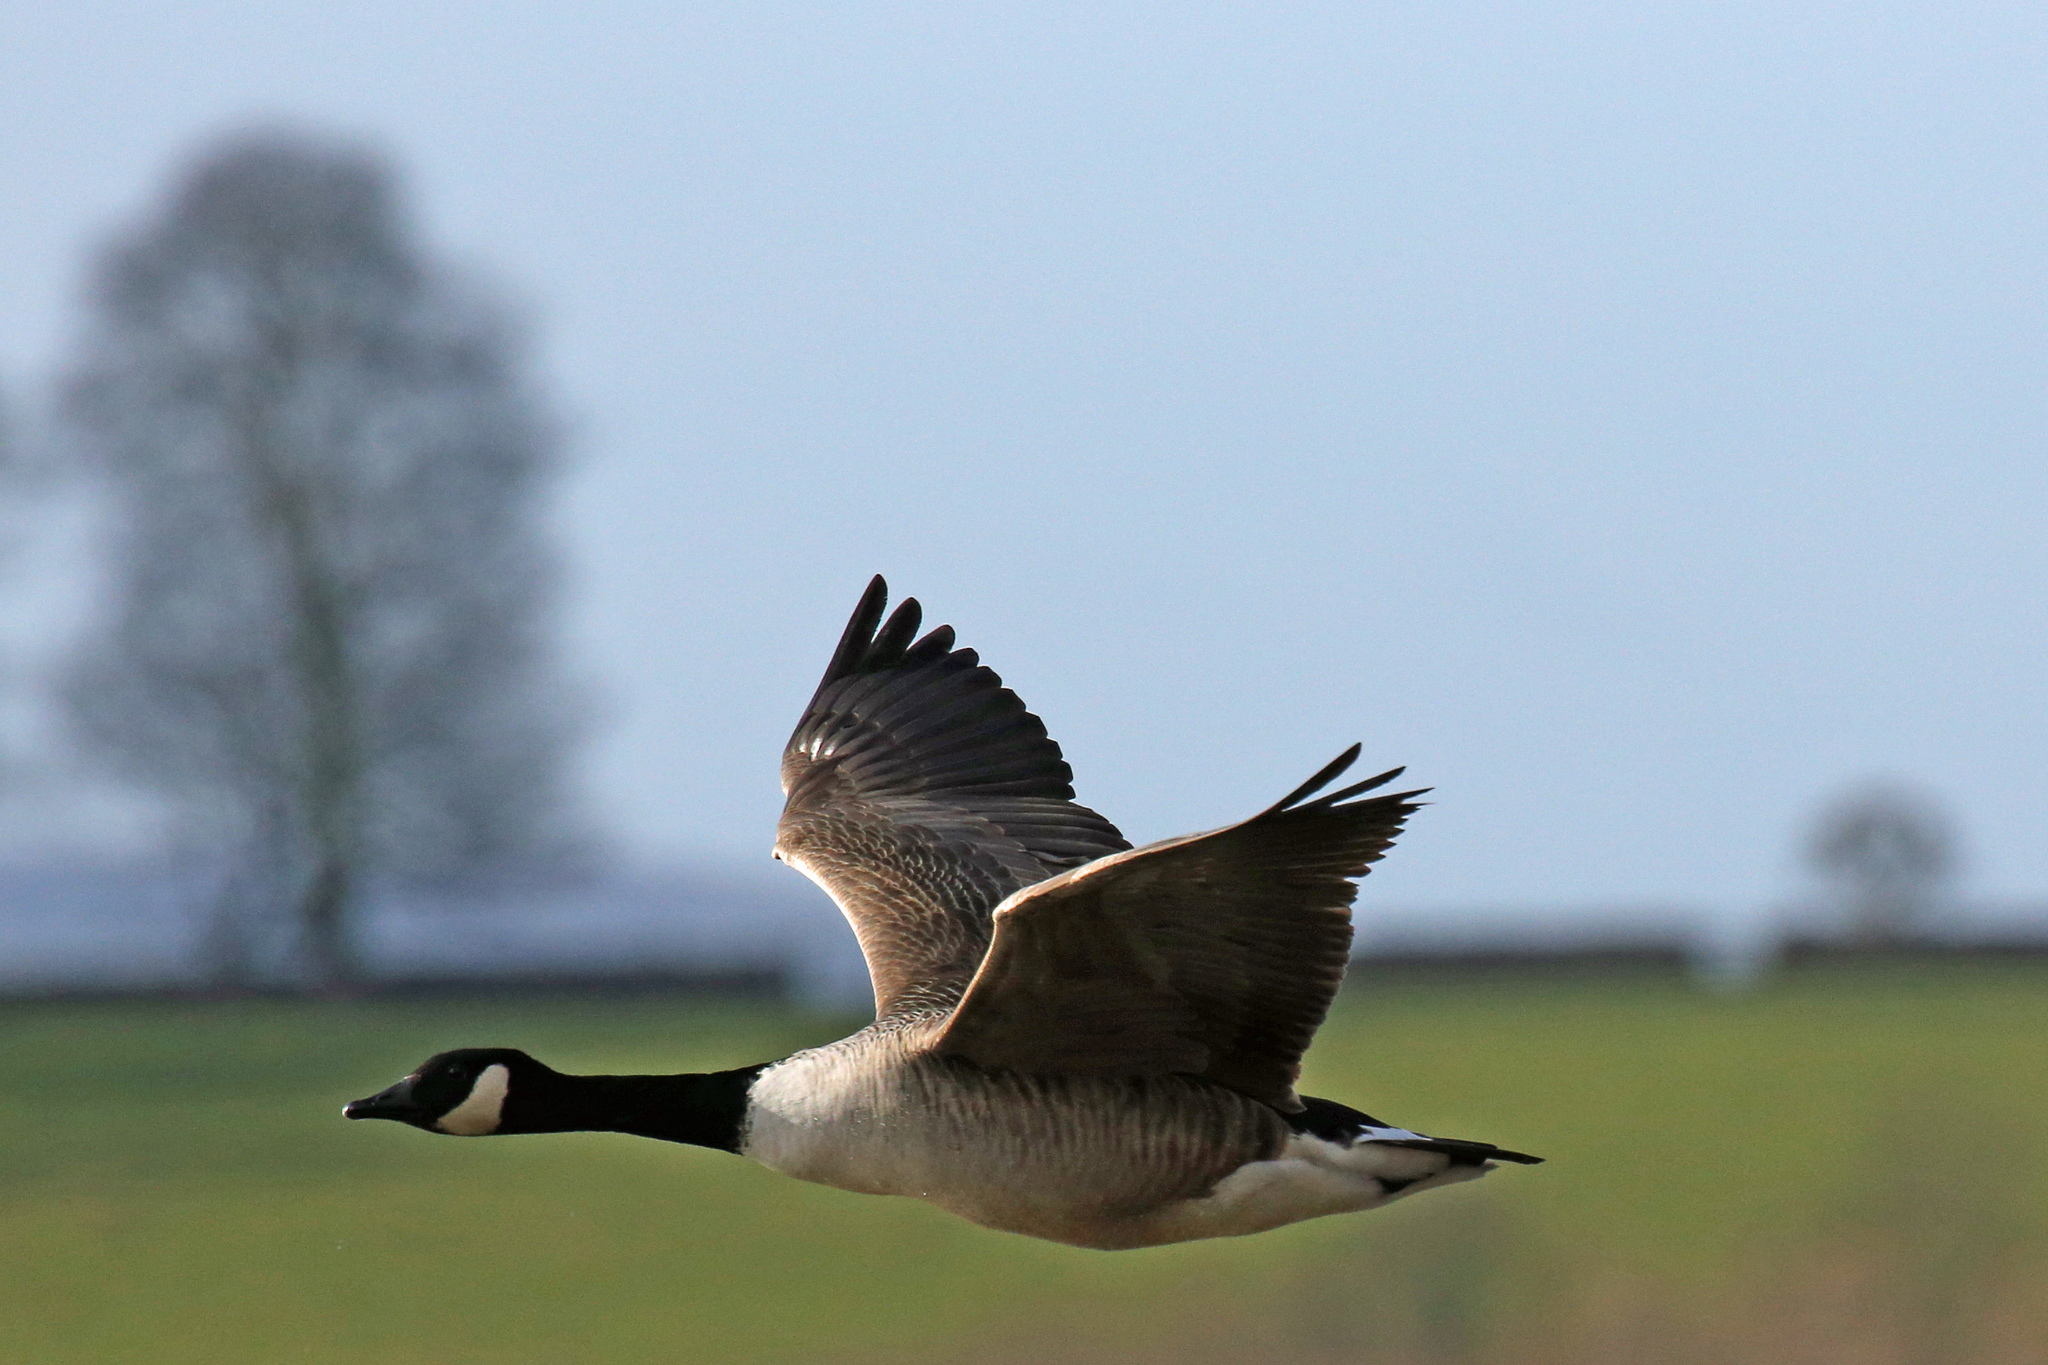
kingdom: Animalia
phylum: Chordata
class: Aves
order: Anseriformes
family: Anatidae
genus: Branta
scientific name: Branta canadensis
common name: Canada goose
